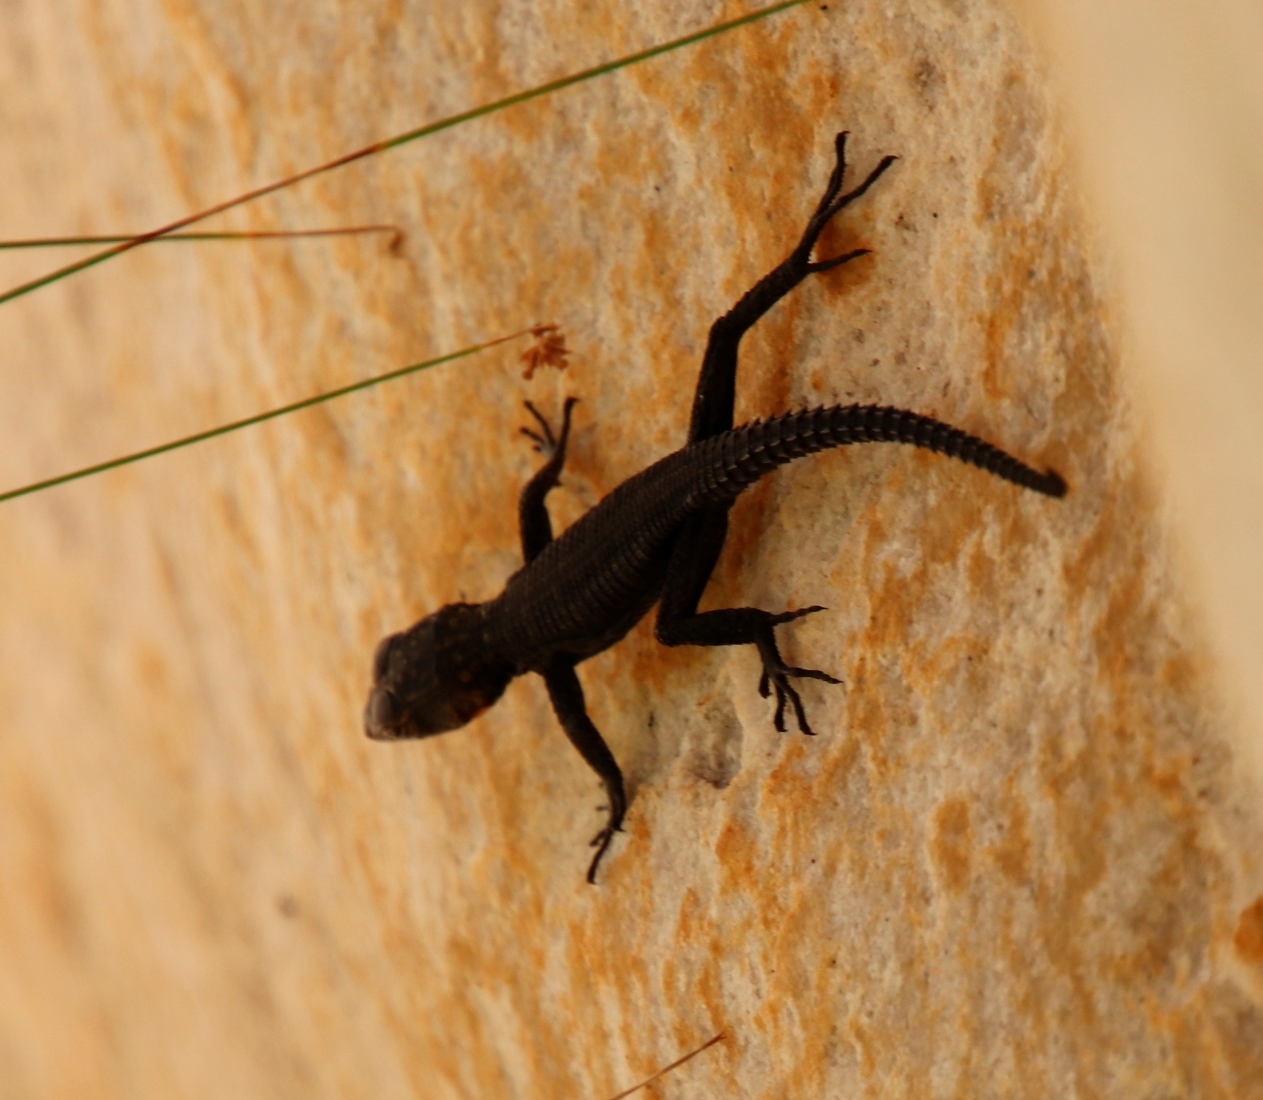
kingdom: Animalia
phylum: Chordata
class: Squamata
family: Cordylidae
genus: Hemicordylus
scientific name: Hemicordylus capensis
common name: Graceful crag lizard
